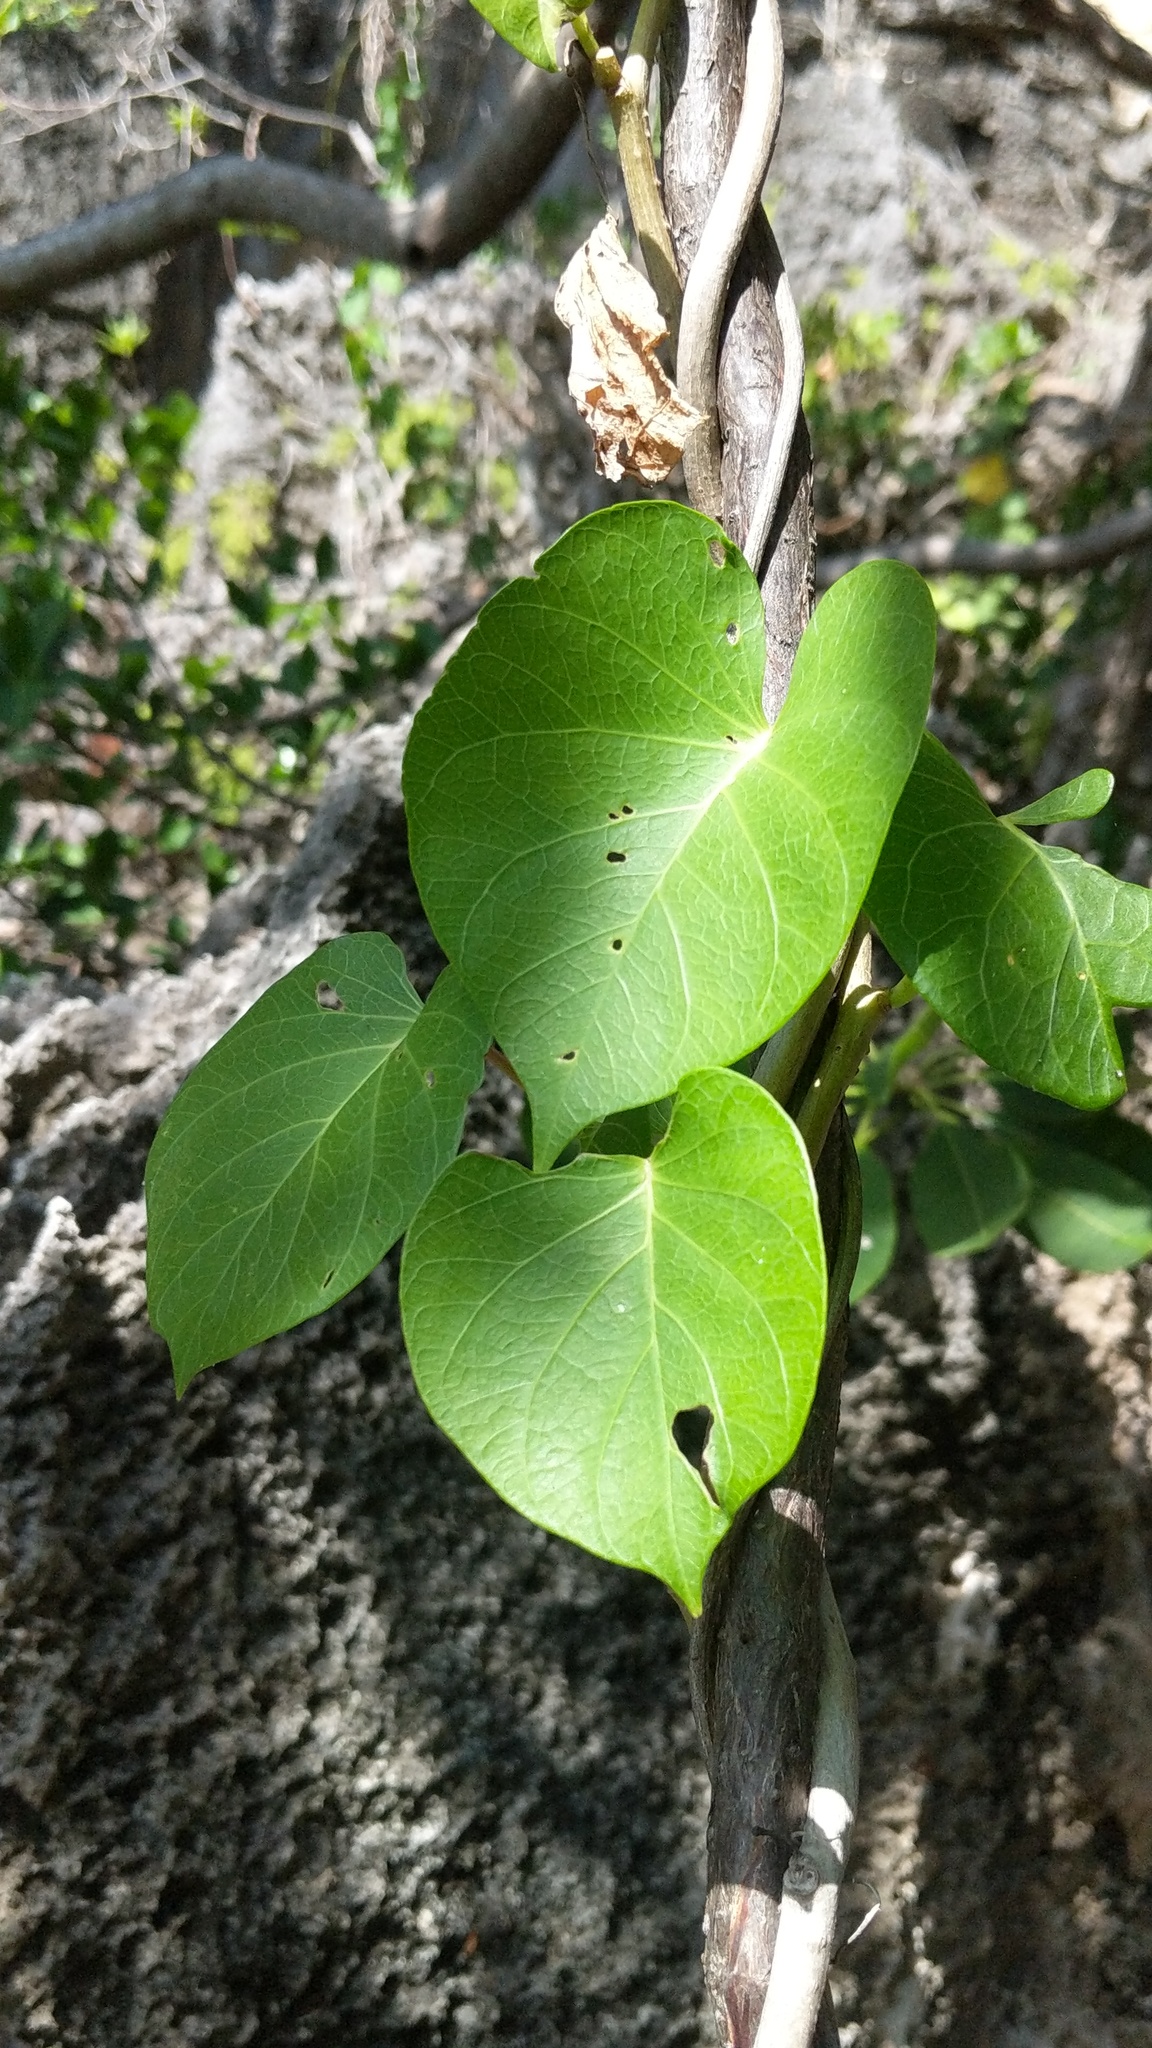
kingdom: Plantae
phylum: Tracheophyta
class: Magnoliopsida
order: Solanales
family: Convolvulaceae
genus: Ipomoea
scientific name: Ipomoea violacea
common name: Beach moonflower
